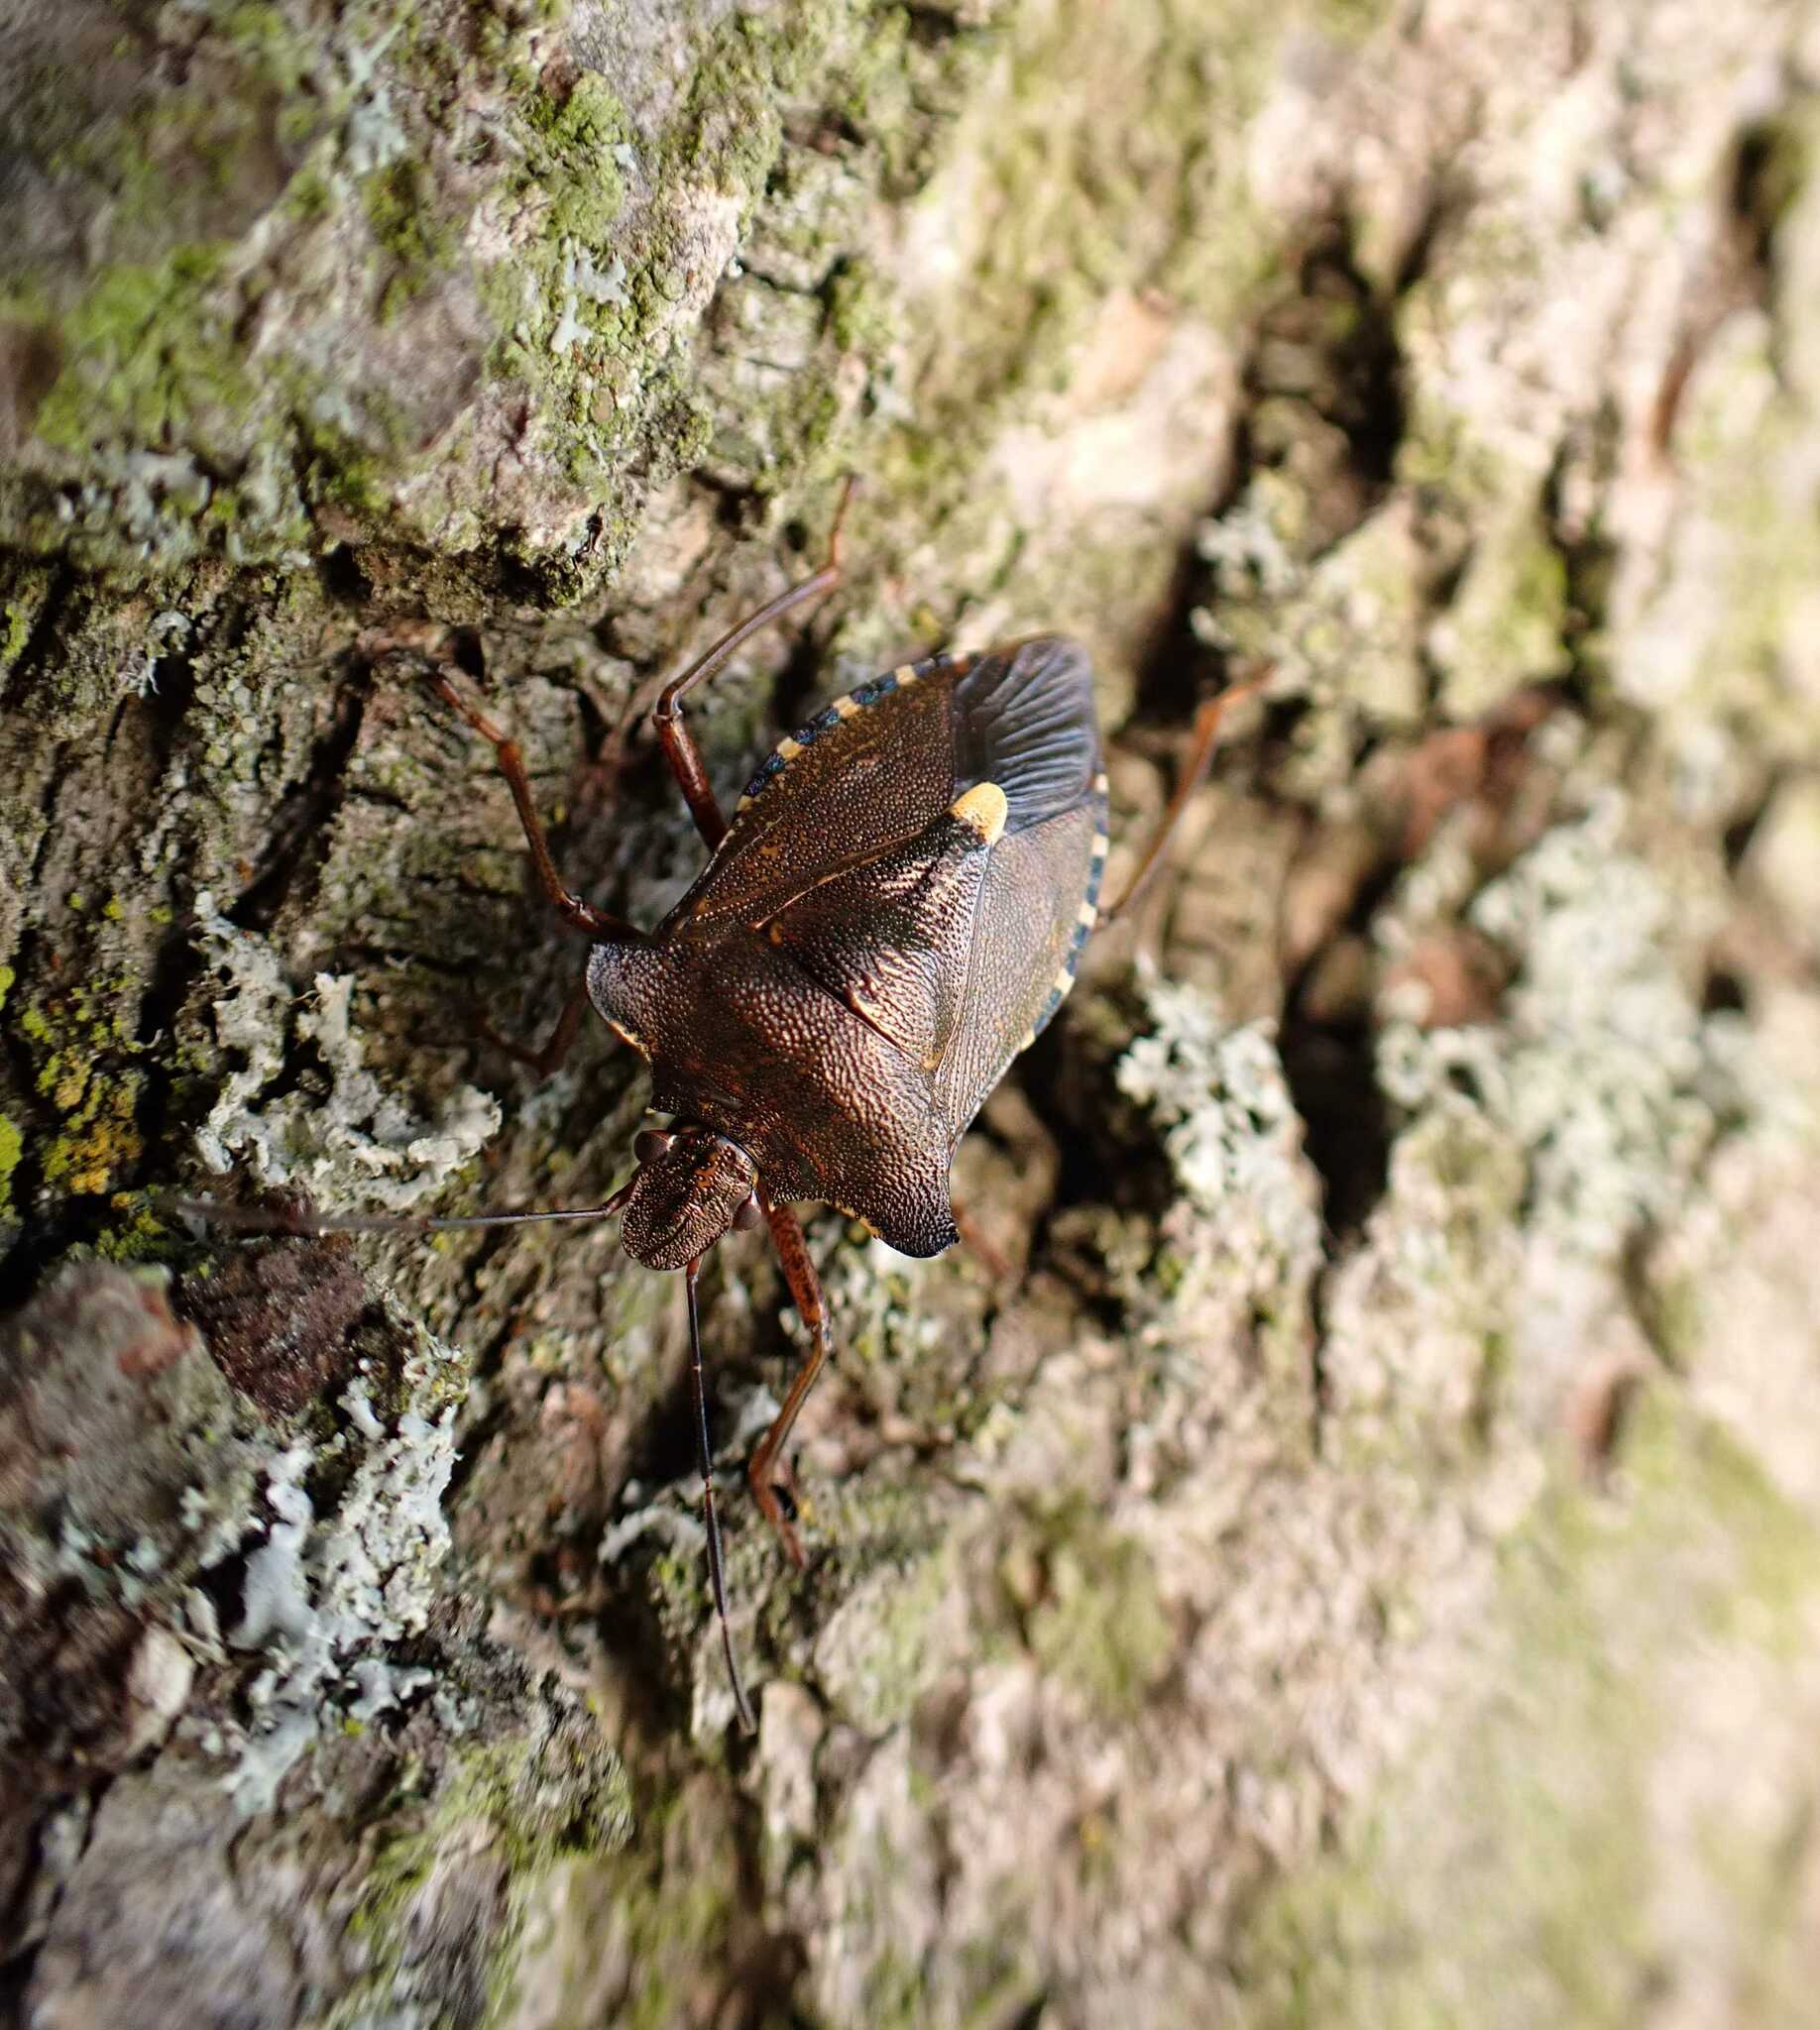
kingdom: Animalia
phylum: Arthropoda
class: Insecta
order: Hemiptera
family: Pentatomidae
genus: Pentatoma
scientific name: Pentatoma rufipes
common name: Forest bug
